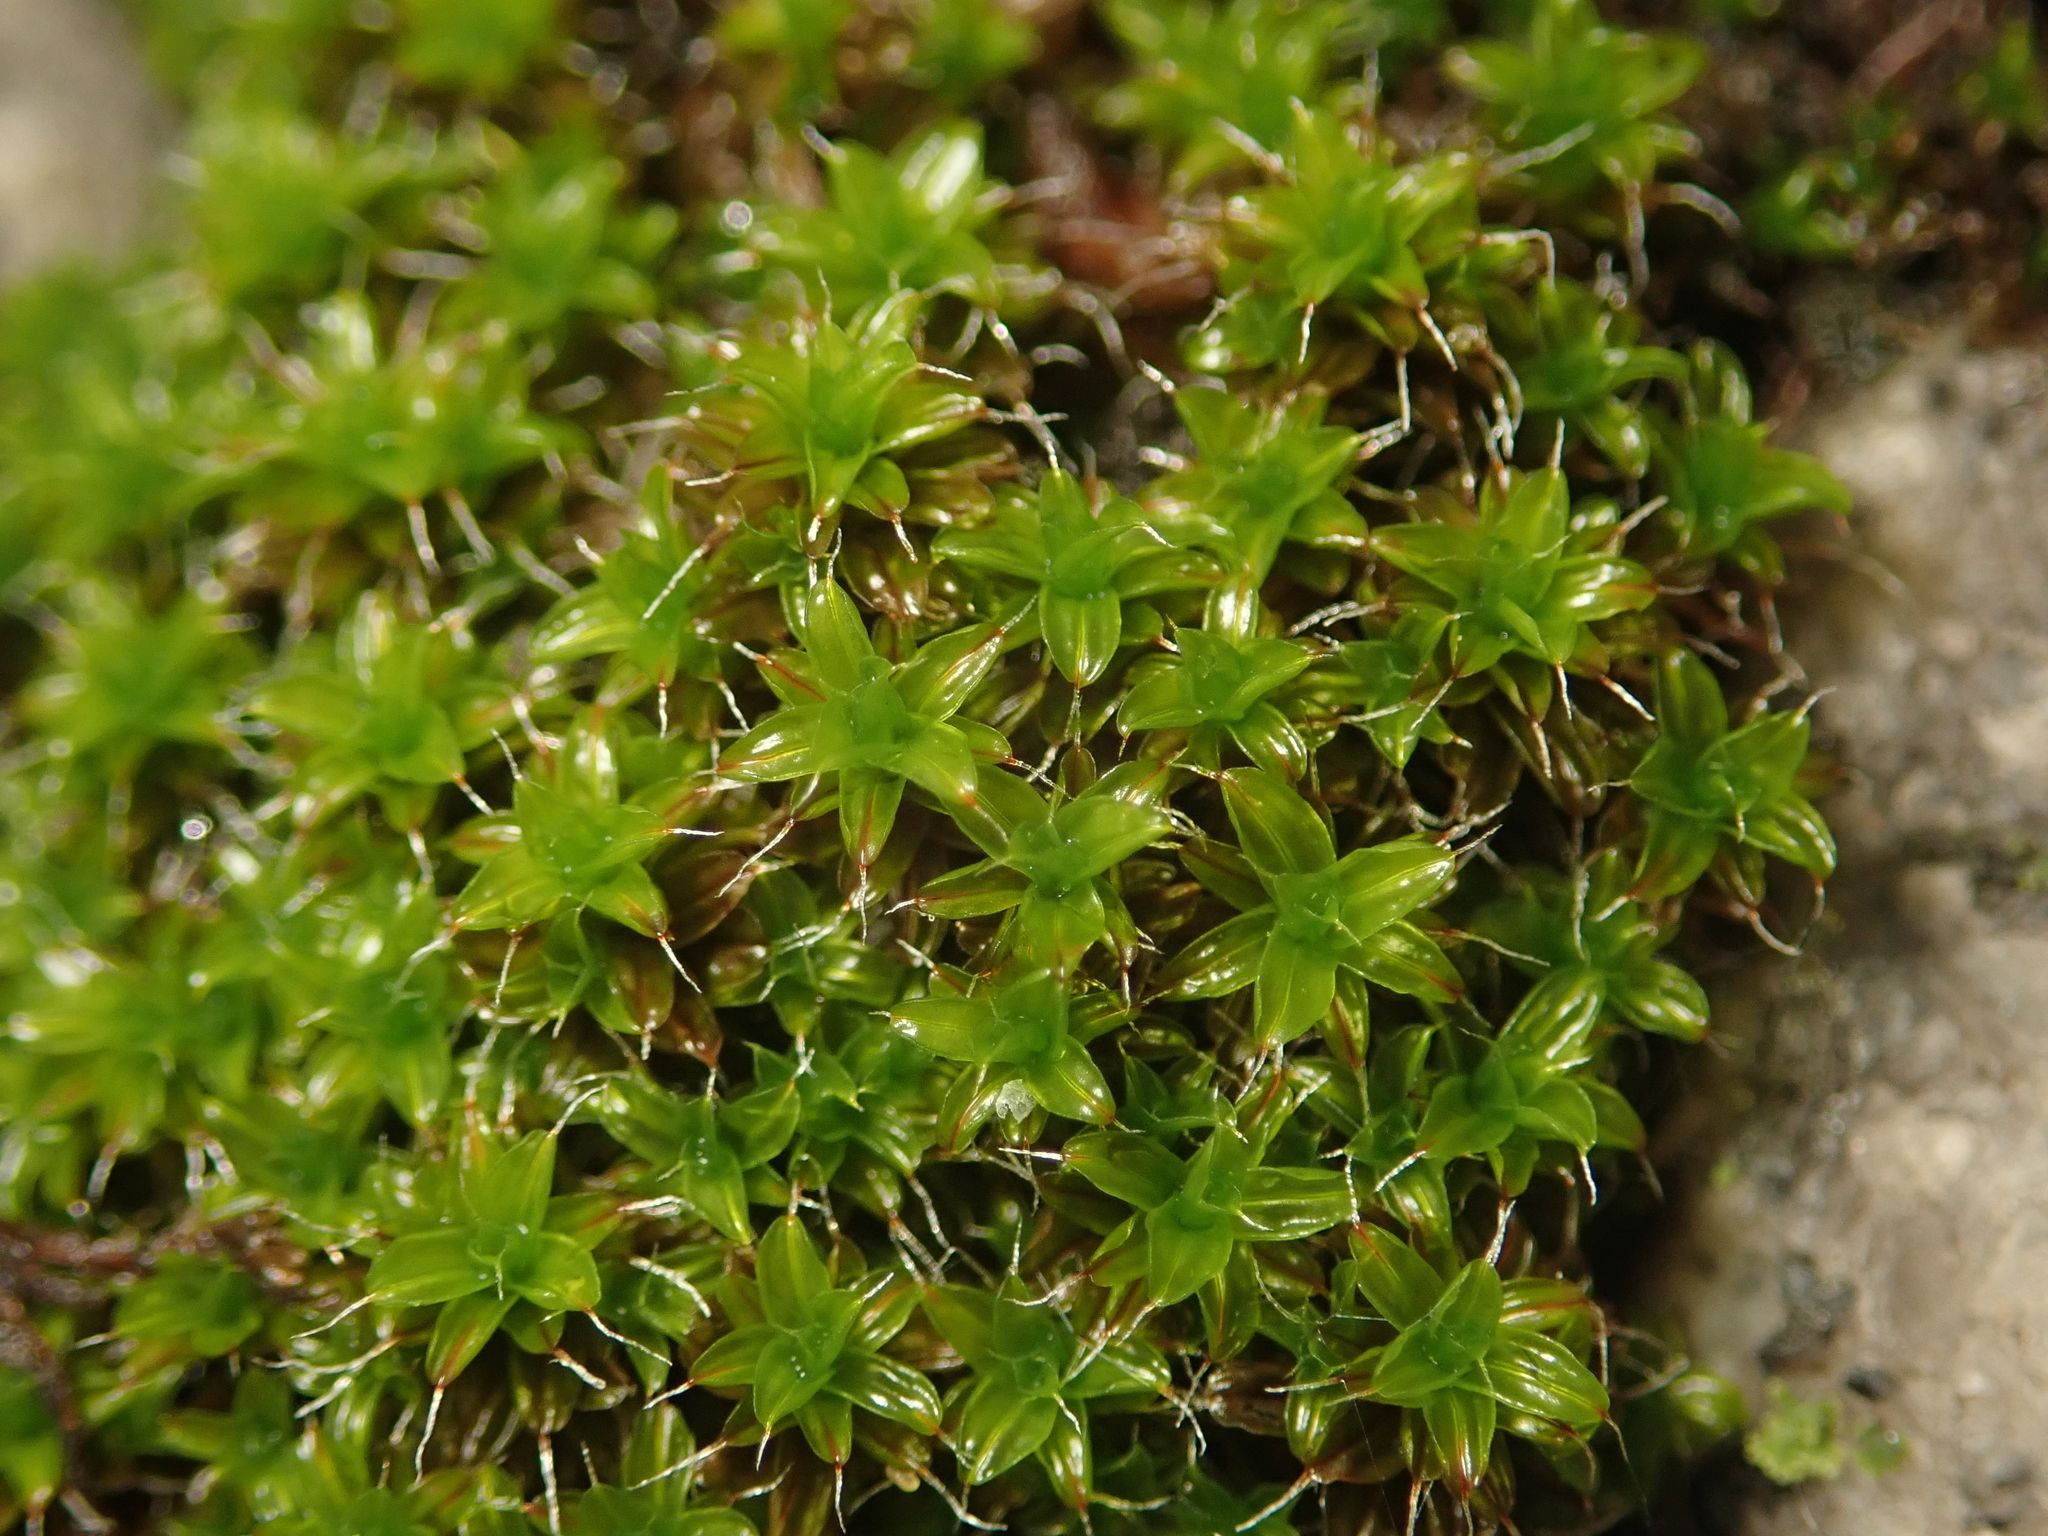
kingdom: Plantae
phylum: Bryophyta
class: Bryopsida
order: Pottiales
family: Pottiaceae
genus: Syntrichia
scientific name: Syntrichia ruralis
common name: Sidewalk screw moss
